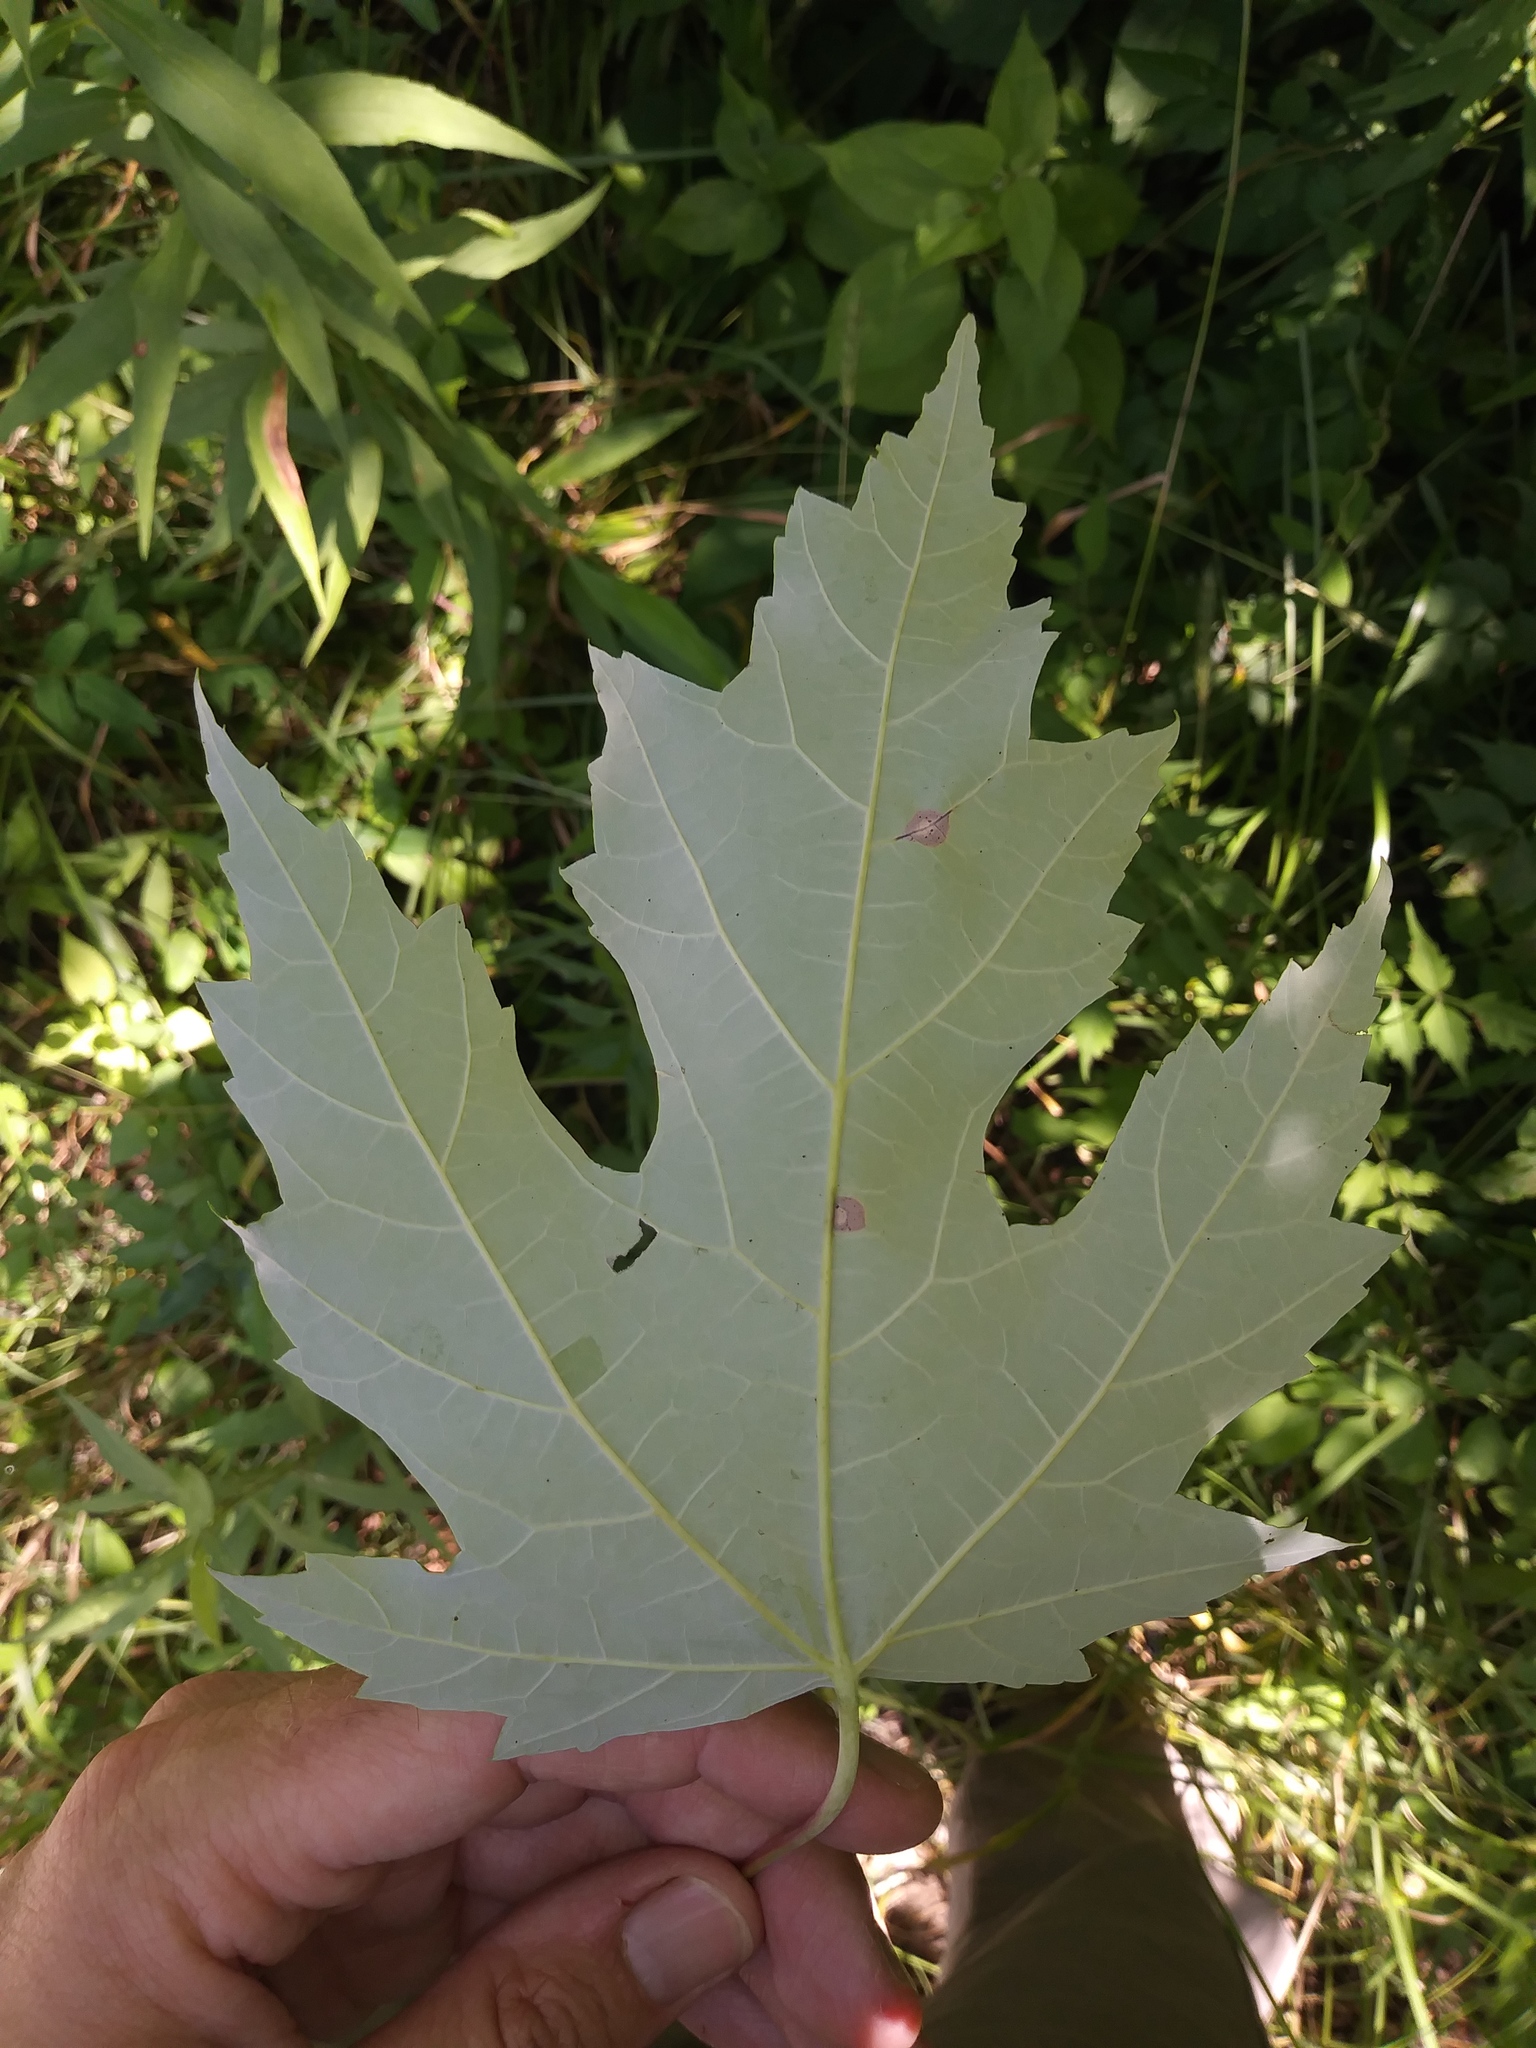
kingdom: Plantae
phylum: Tracheophyta
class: Magnoliopsida
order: Sapindales
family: Sapindaceae
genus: Acer
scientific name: Acer saccharinum
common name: Silver maple
